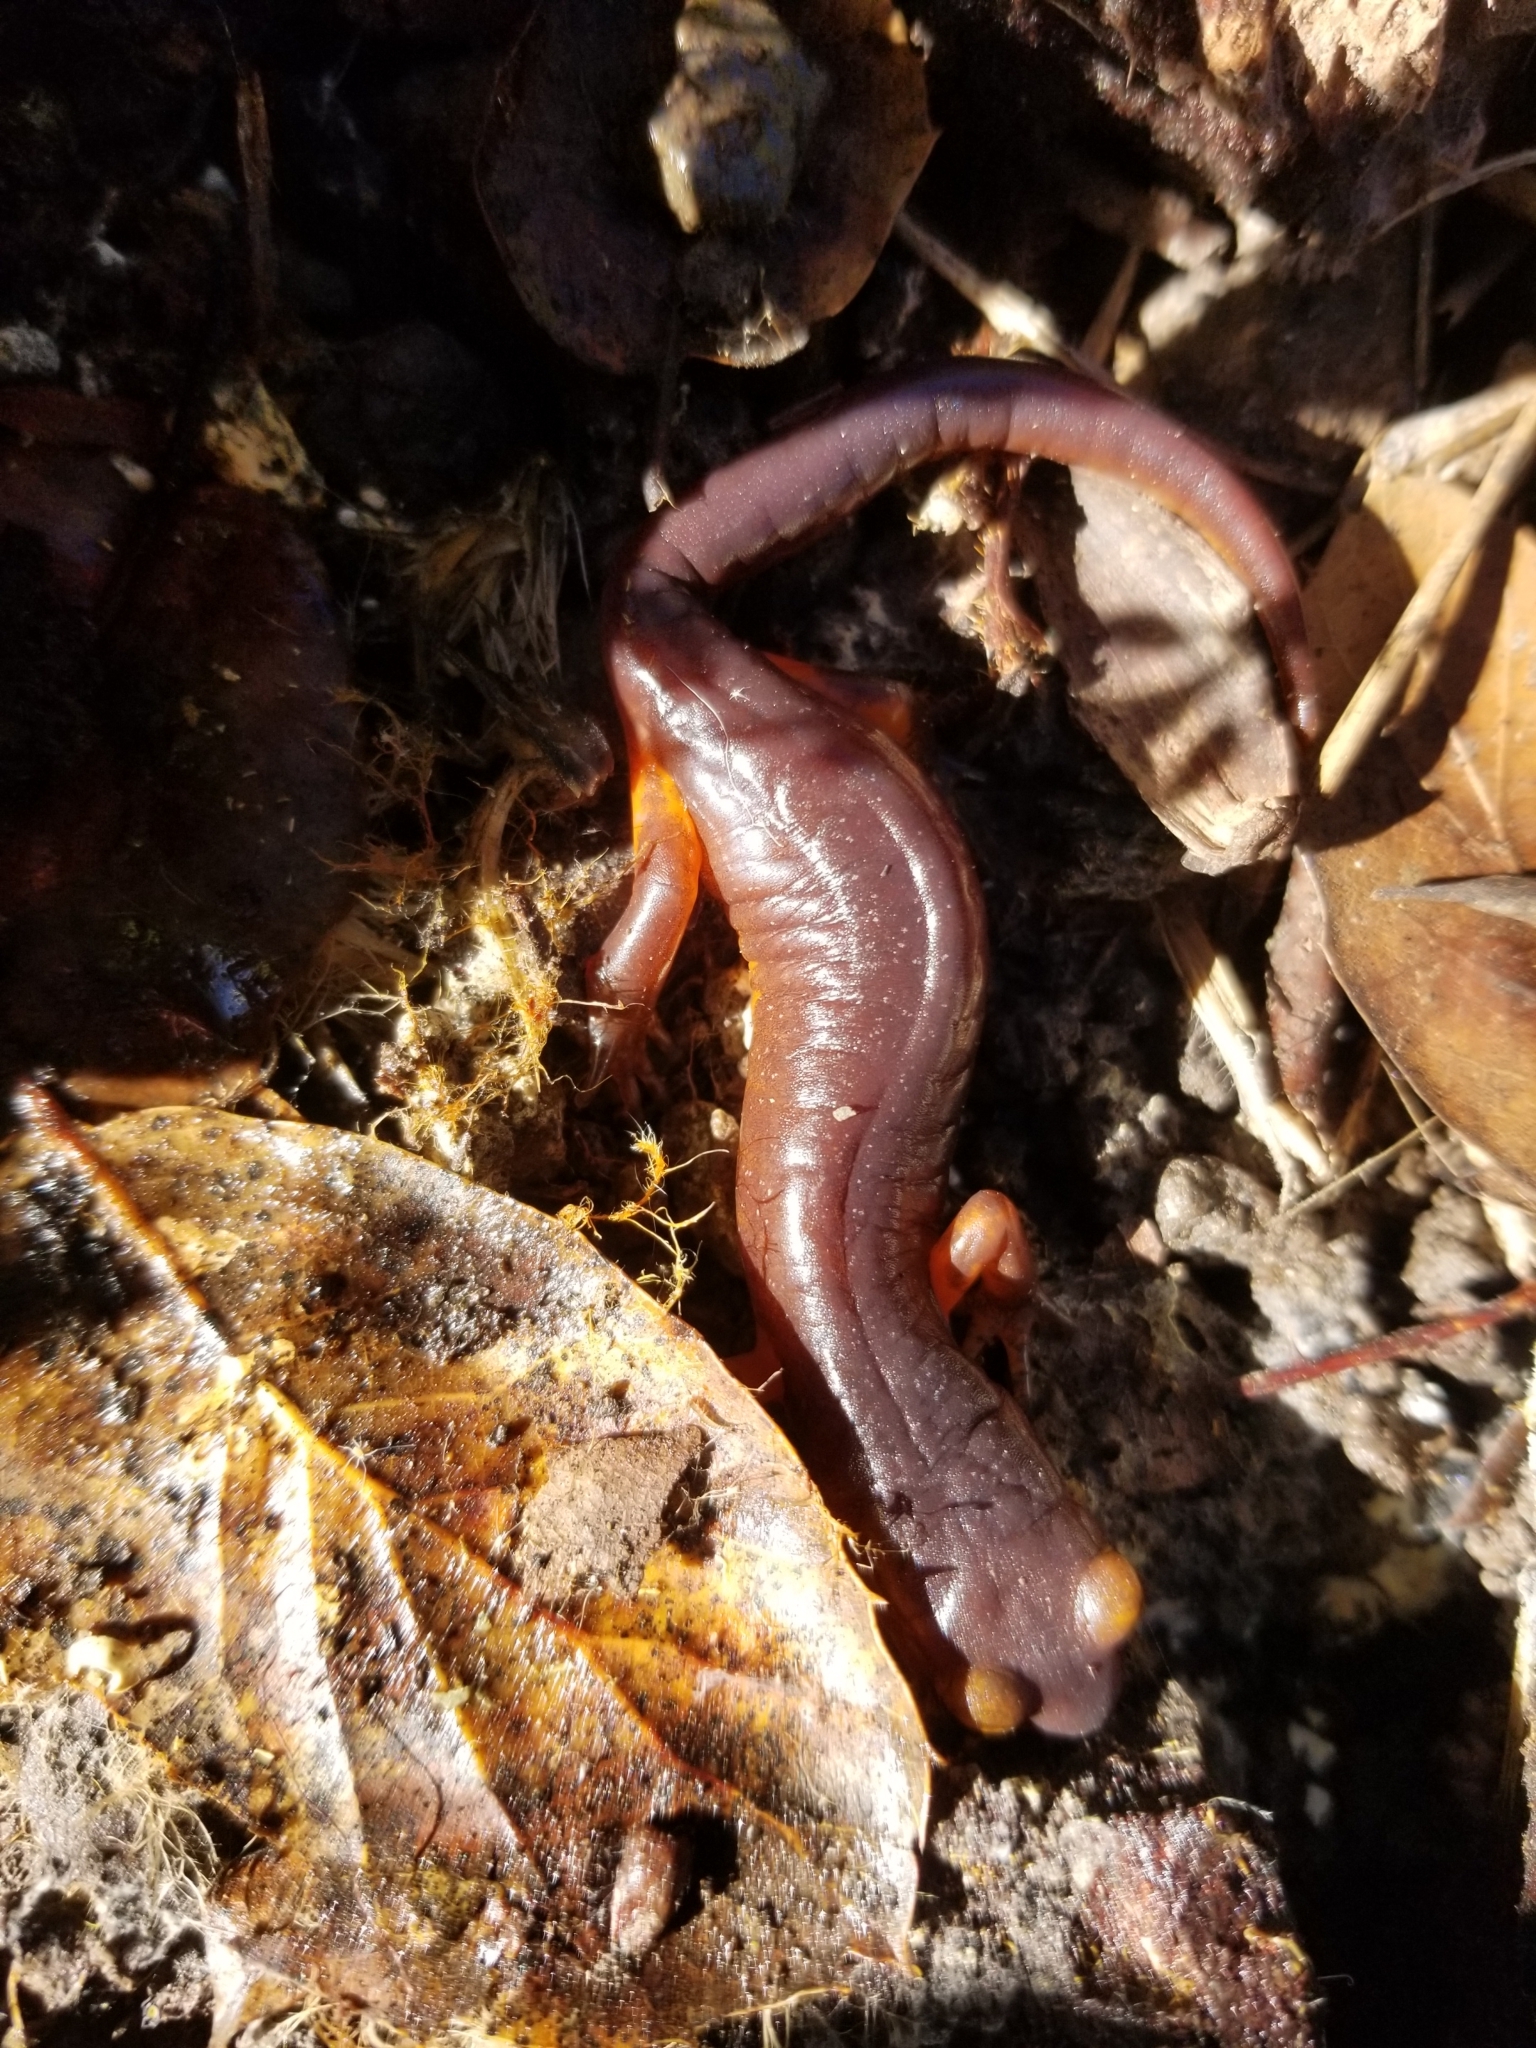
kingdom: Animalia
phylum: Chordata
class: Amphibia
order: Caudata
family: Plethodontidae
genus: Ensatina
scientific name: Ensatina eschscholtzii
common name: Ensatina
